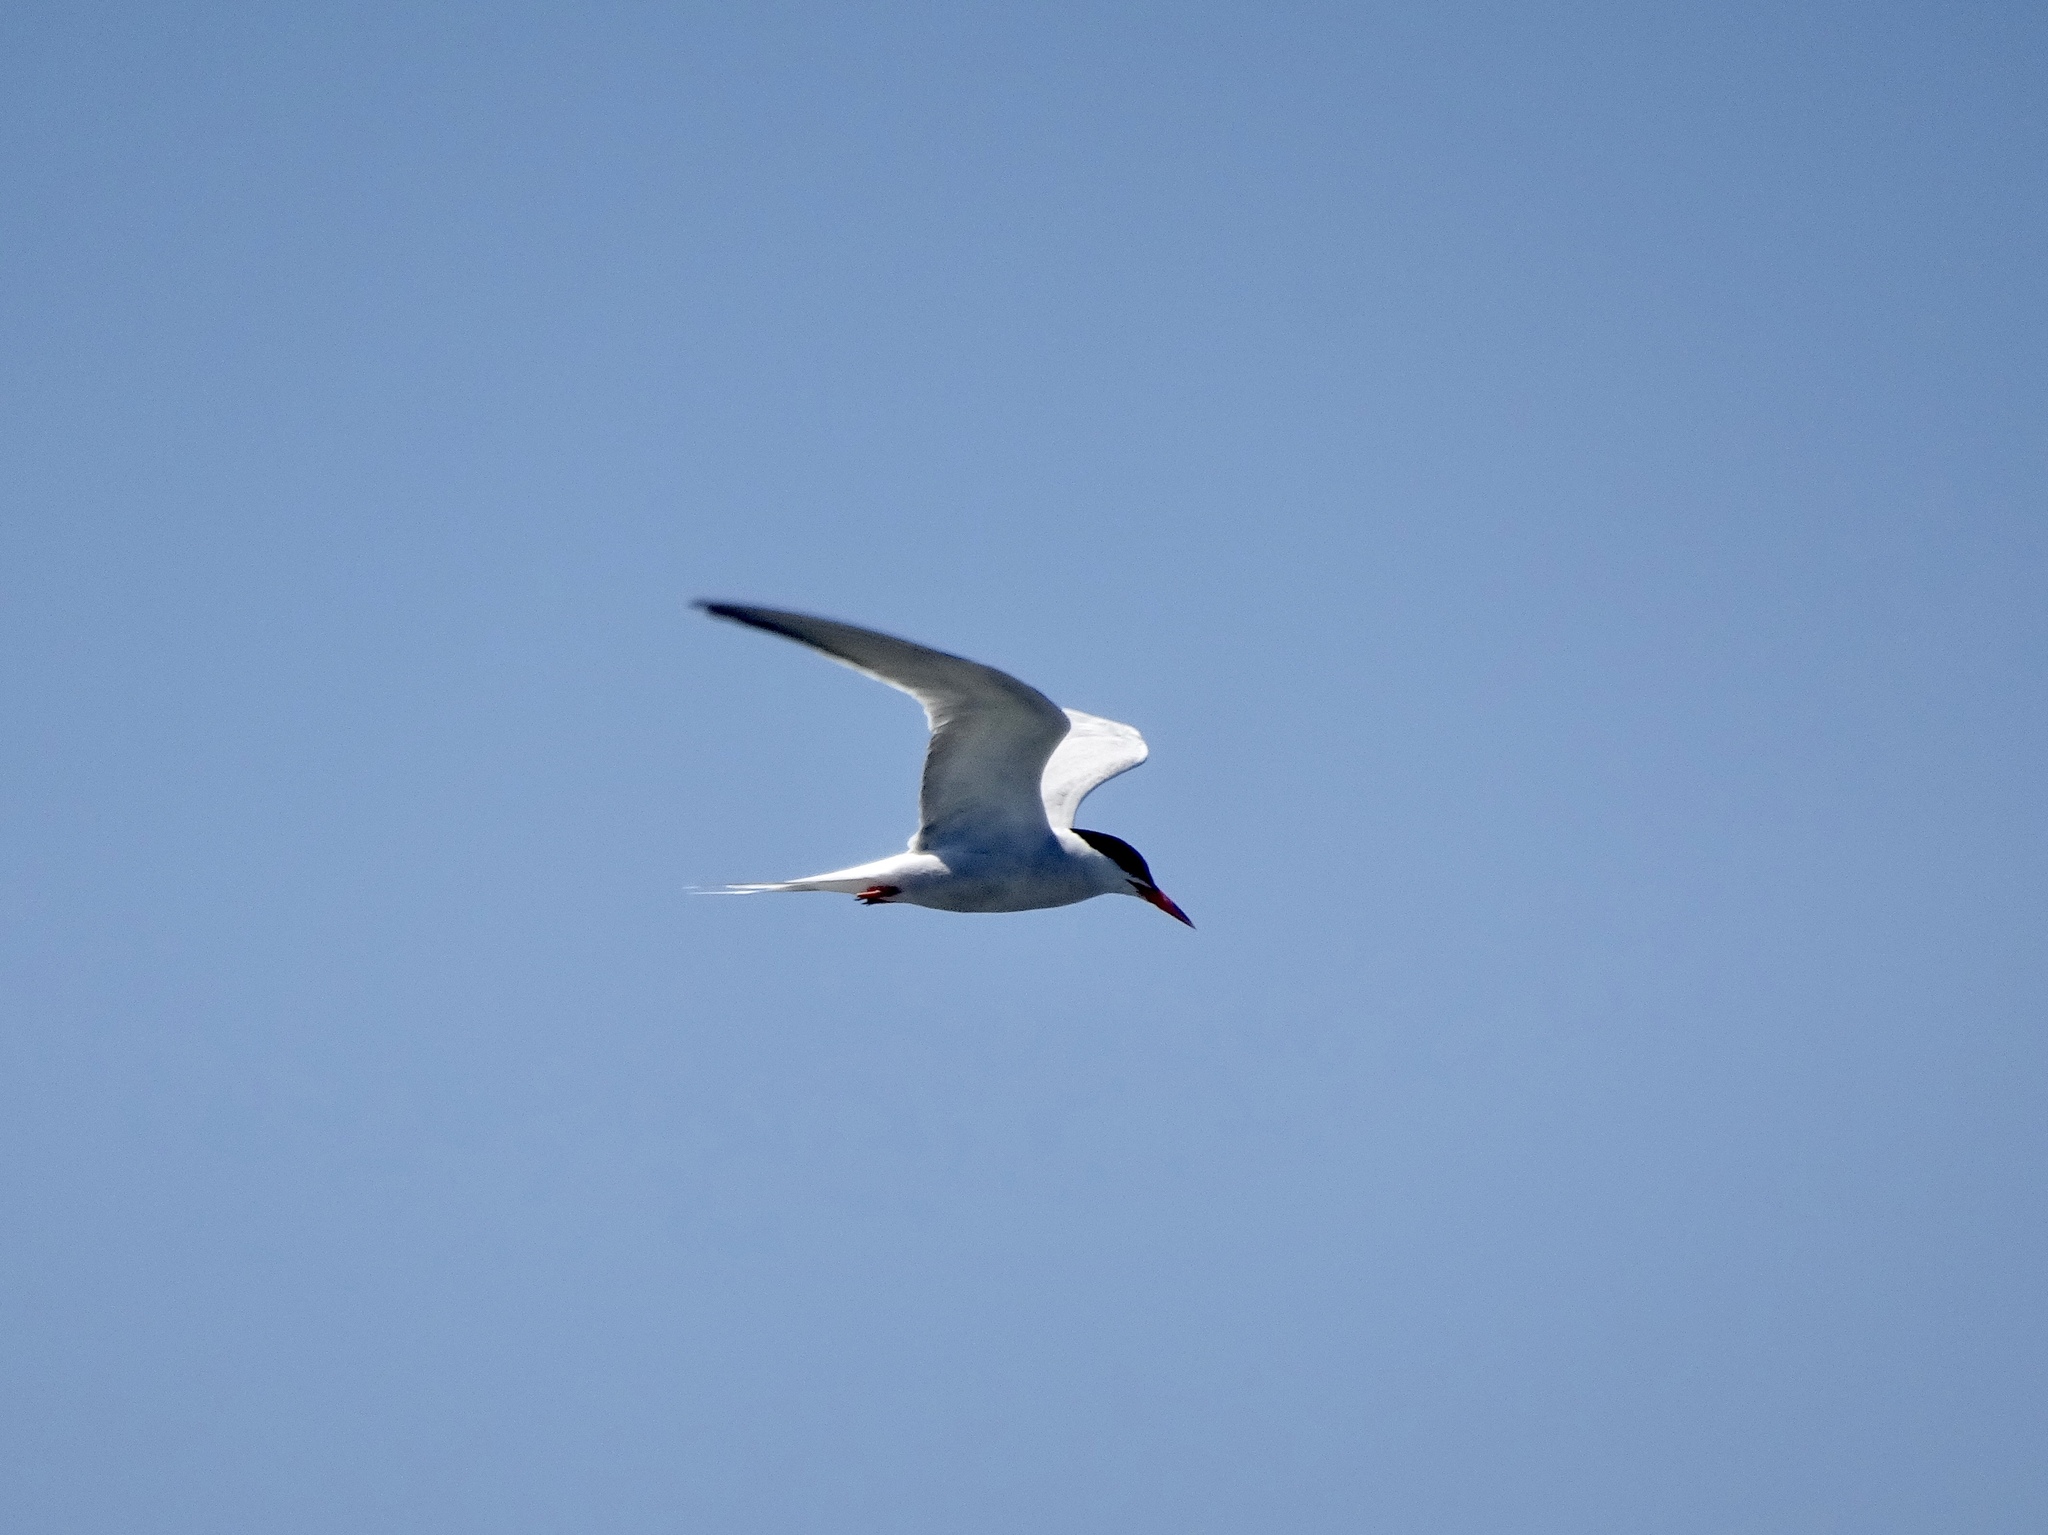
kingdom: Animalia
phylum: Chordata
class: Aves
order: Charadriiformes
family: Laridae
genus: Sterna
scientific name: Sterna hirundo
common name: Common tern
